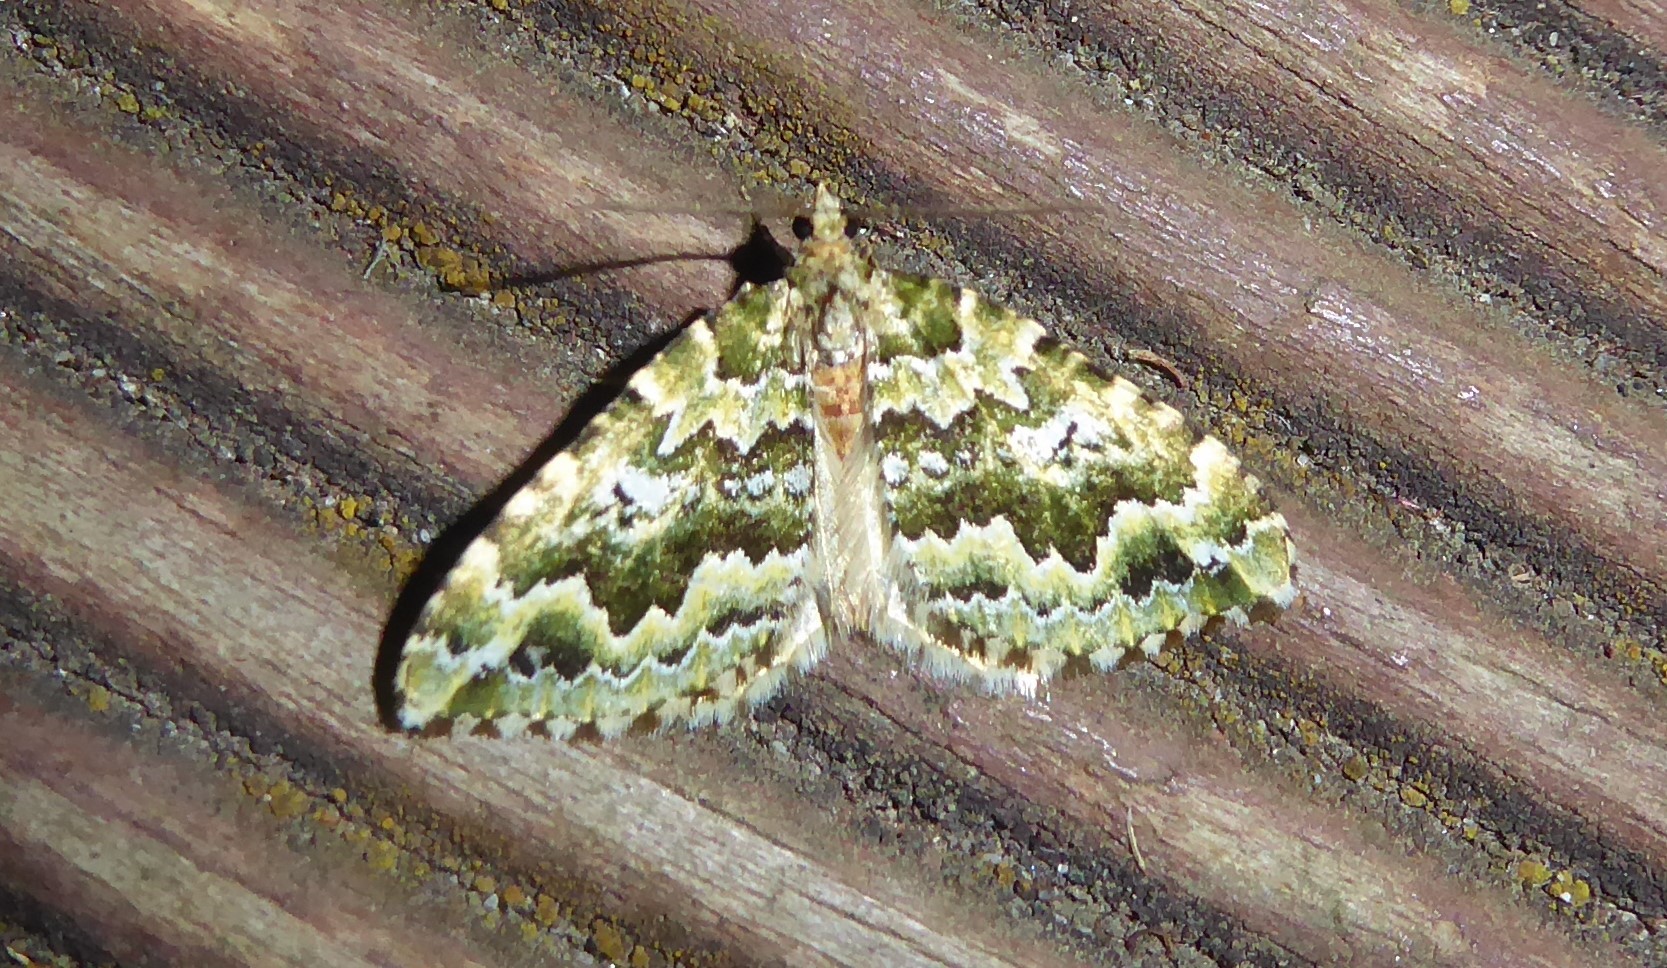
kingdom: Animalia
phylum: Arthropoda
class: Insecta
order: Lepidoptera
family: Geometridae
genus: Asaphodes
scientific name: Asaphodes beata
